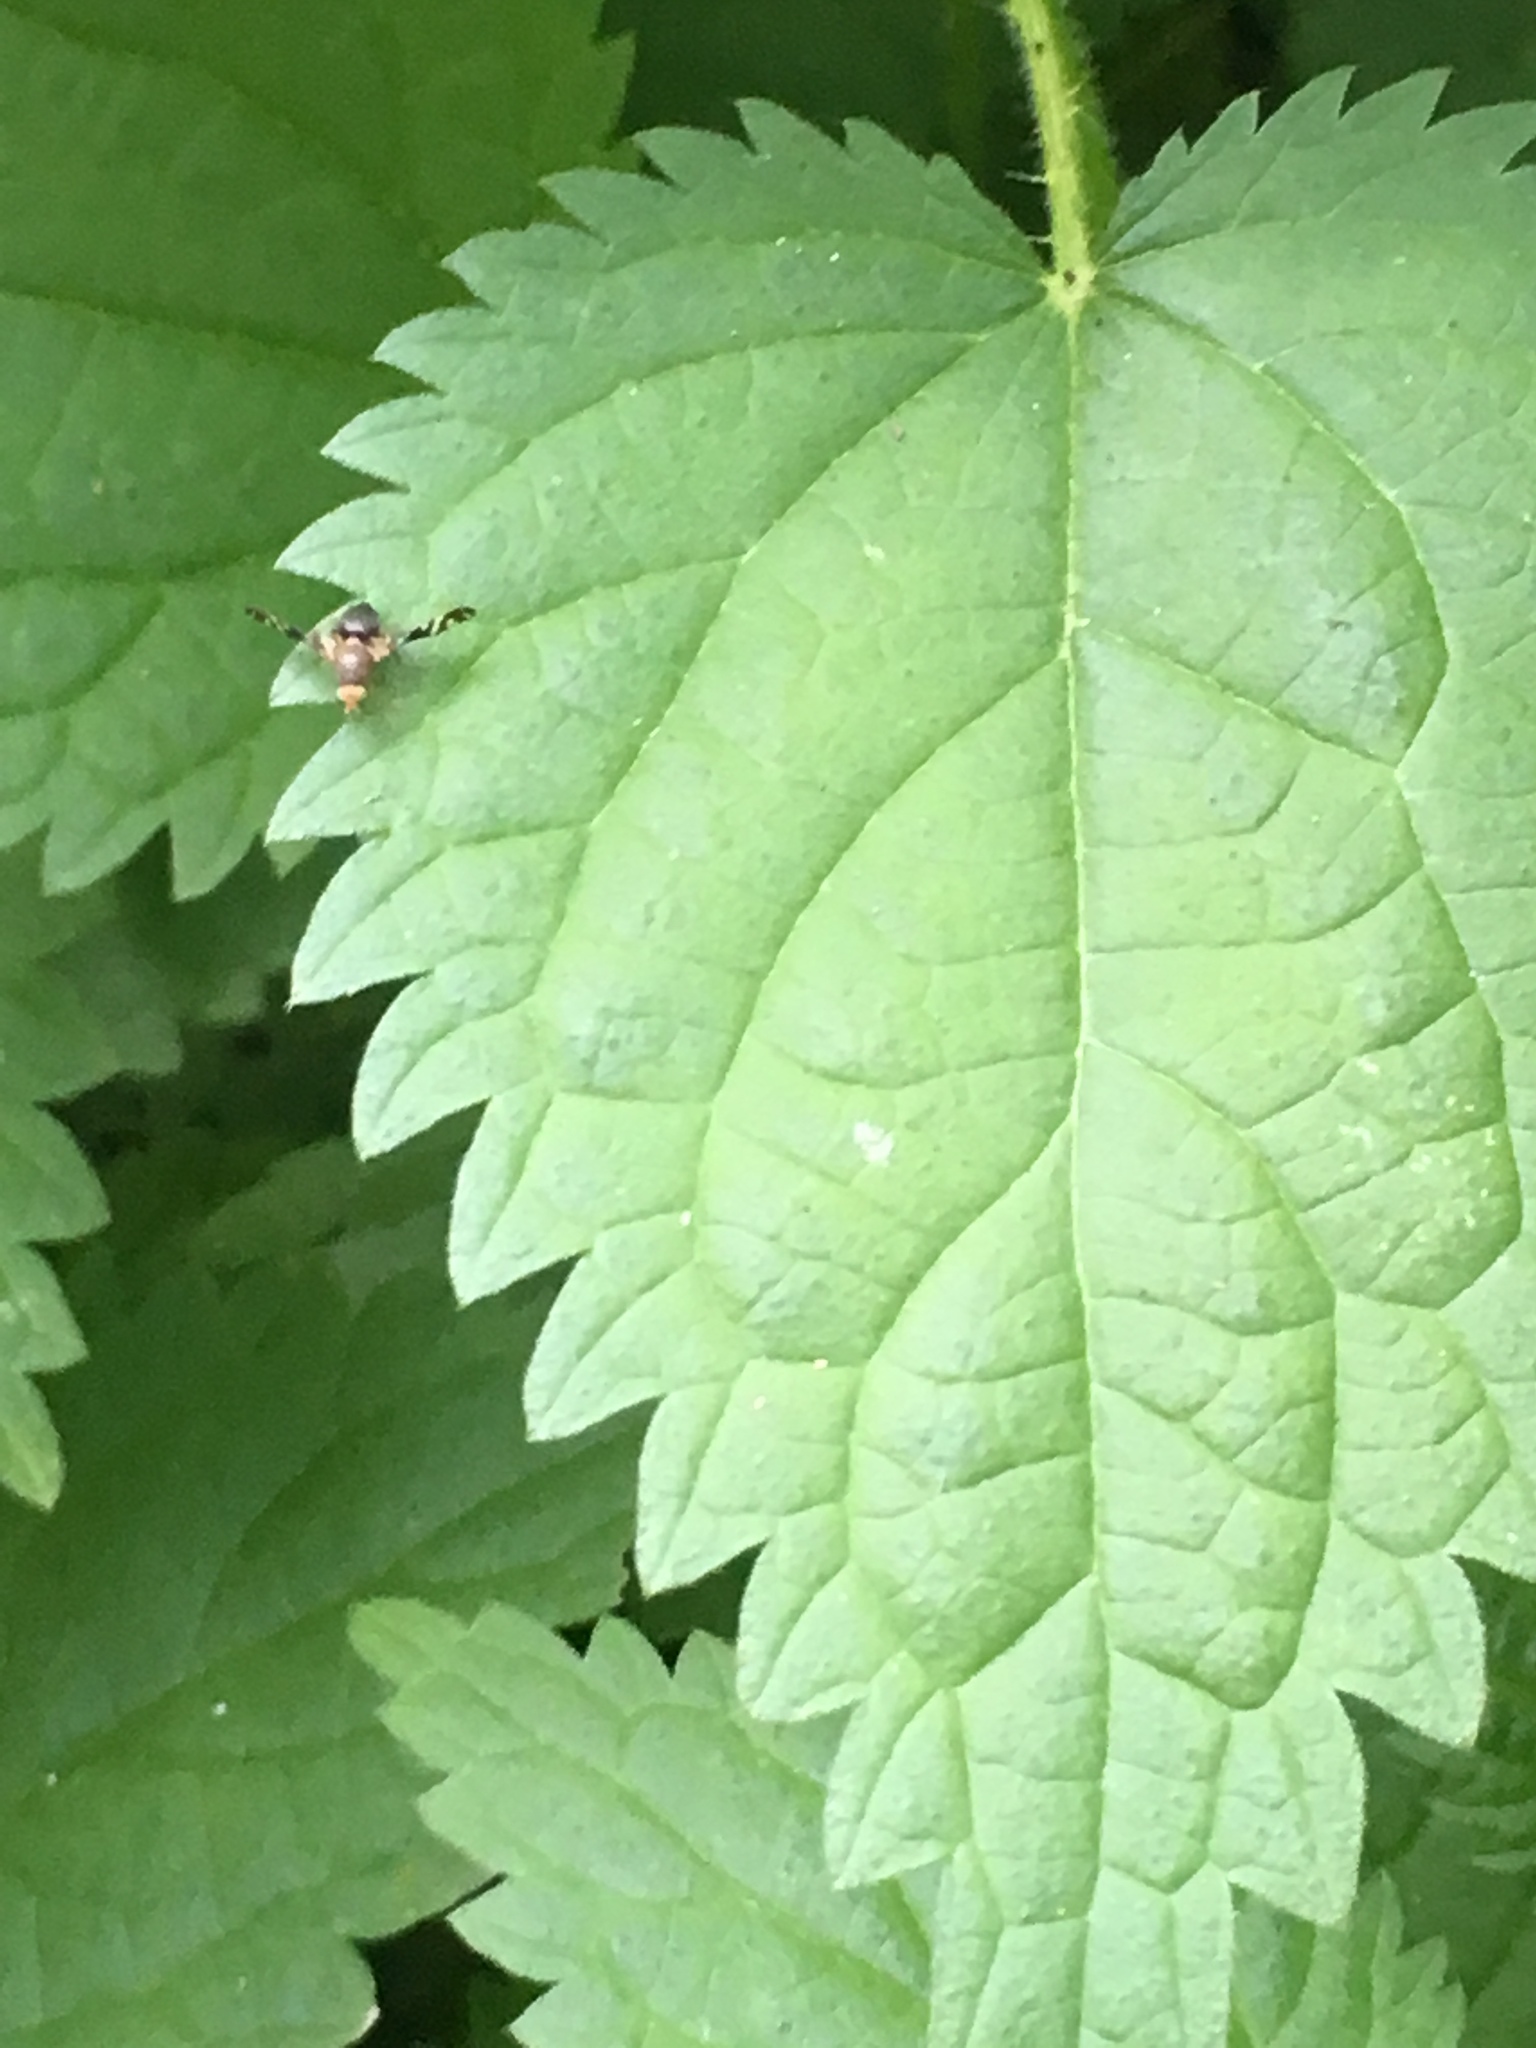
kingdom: Animalia
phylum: Arthropoda
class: Insecta
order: Diptera
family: Tephritidae
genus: Philophylla
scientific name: Philophylla caesio
